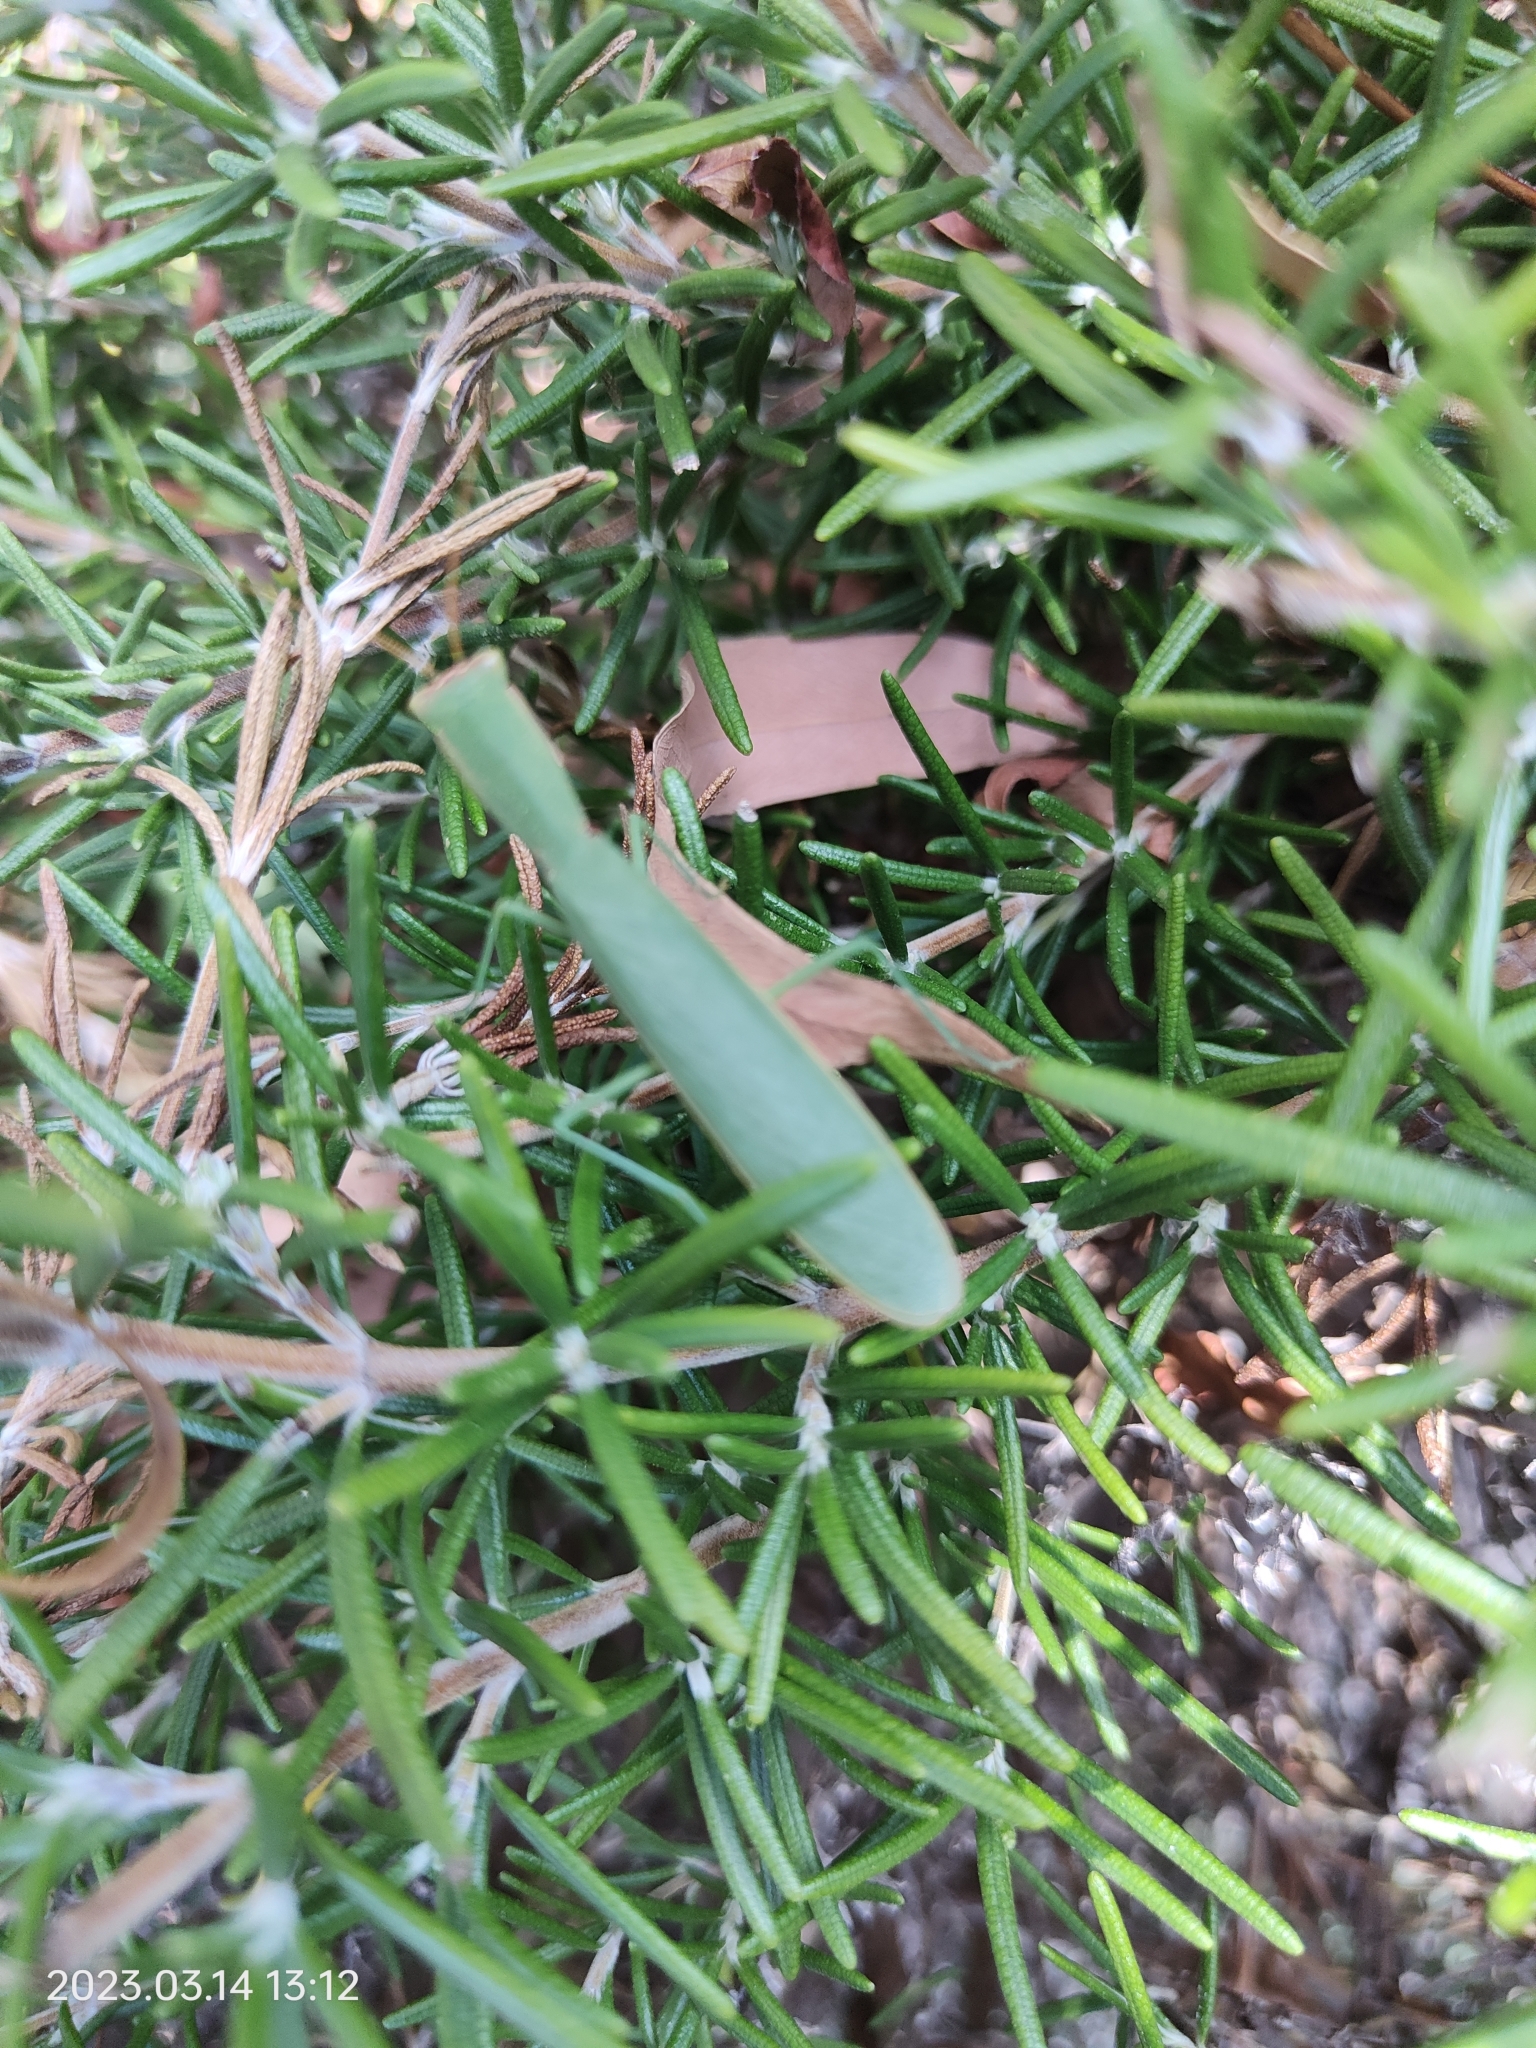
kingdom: Animalia
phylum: Arthropoda
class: Insecta
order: Mantodea
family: Mantidae
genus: Orthodera
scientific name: Orthodera ministralis
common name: Mantis
